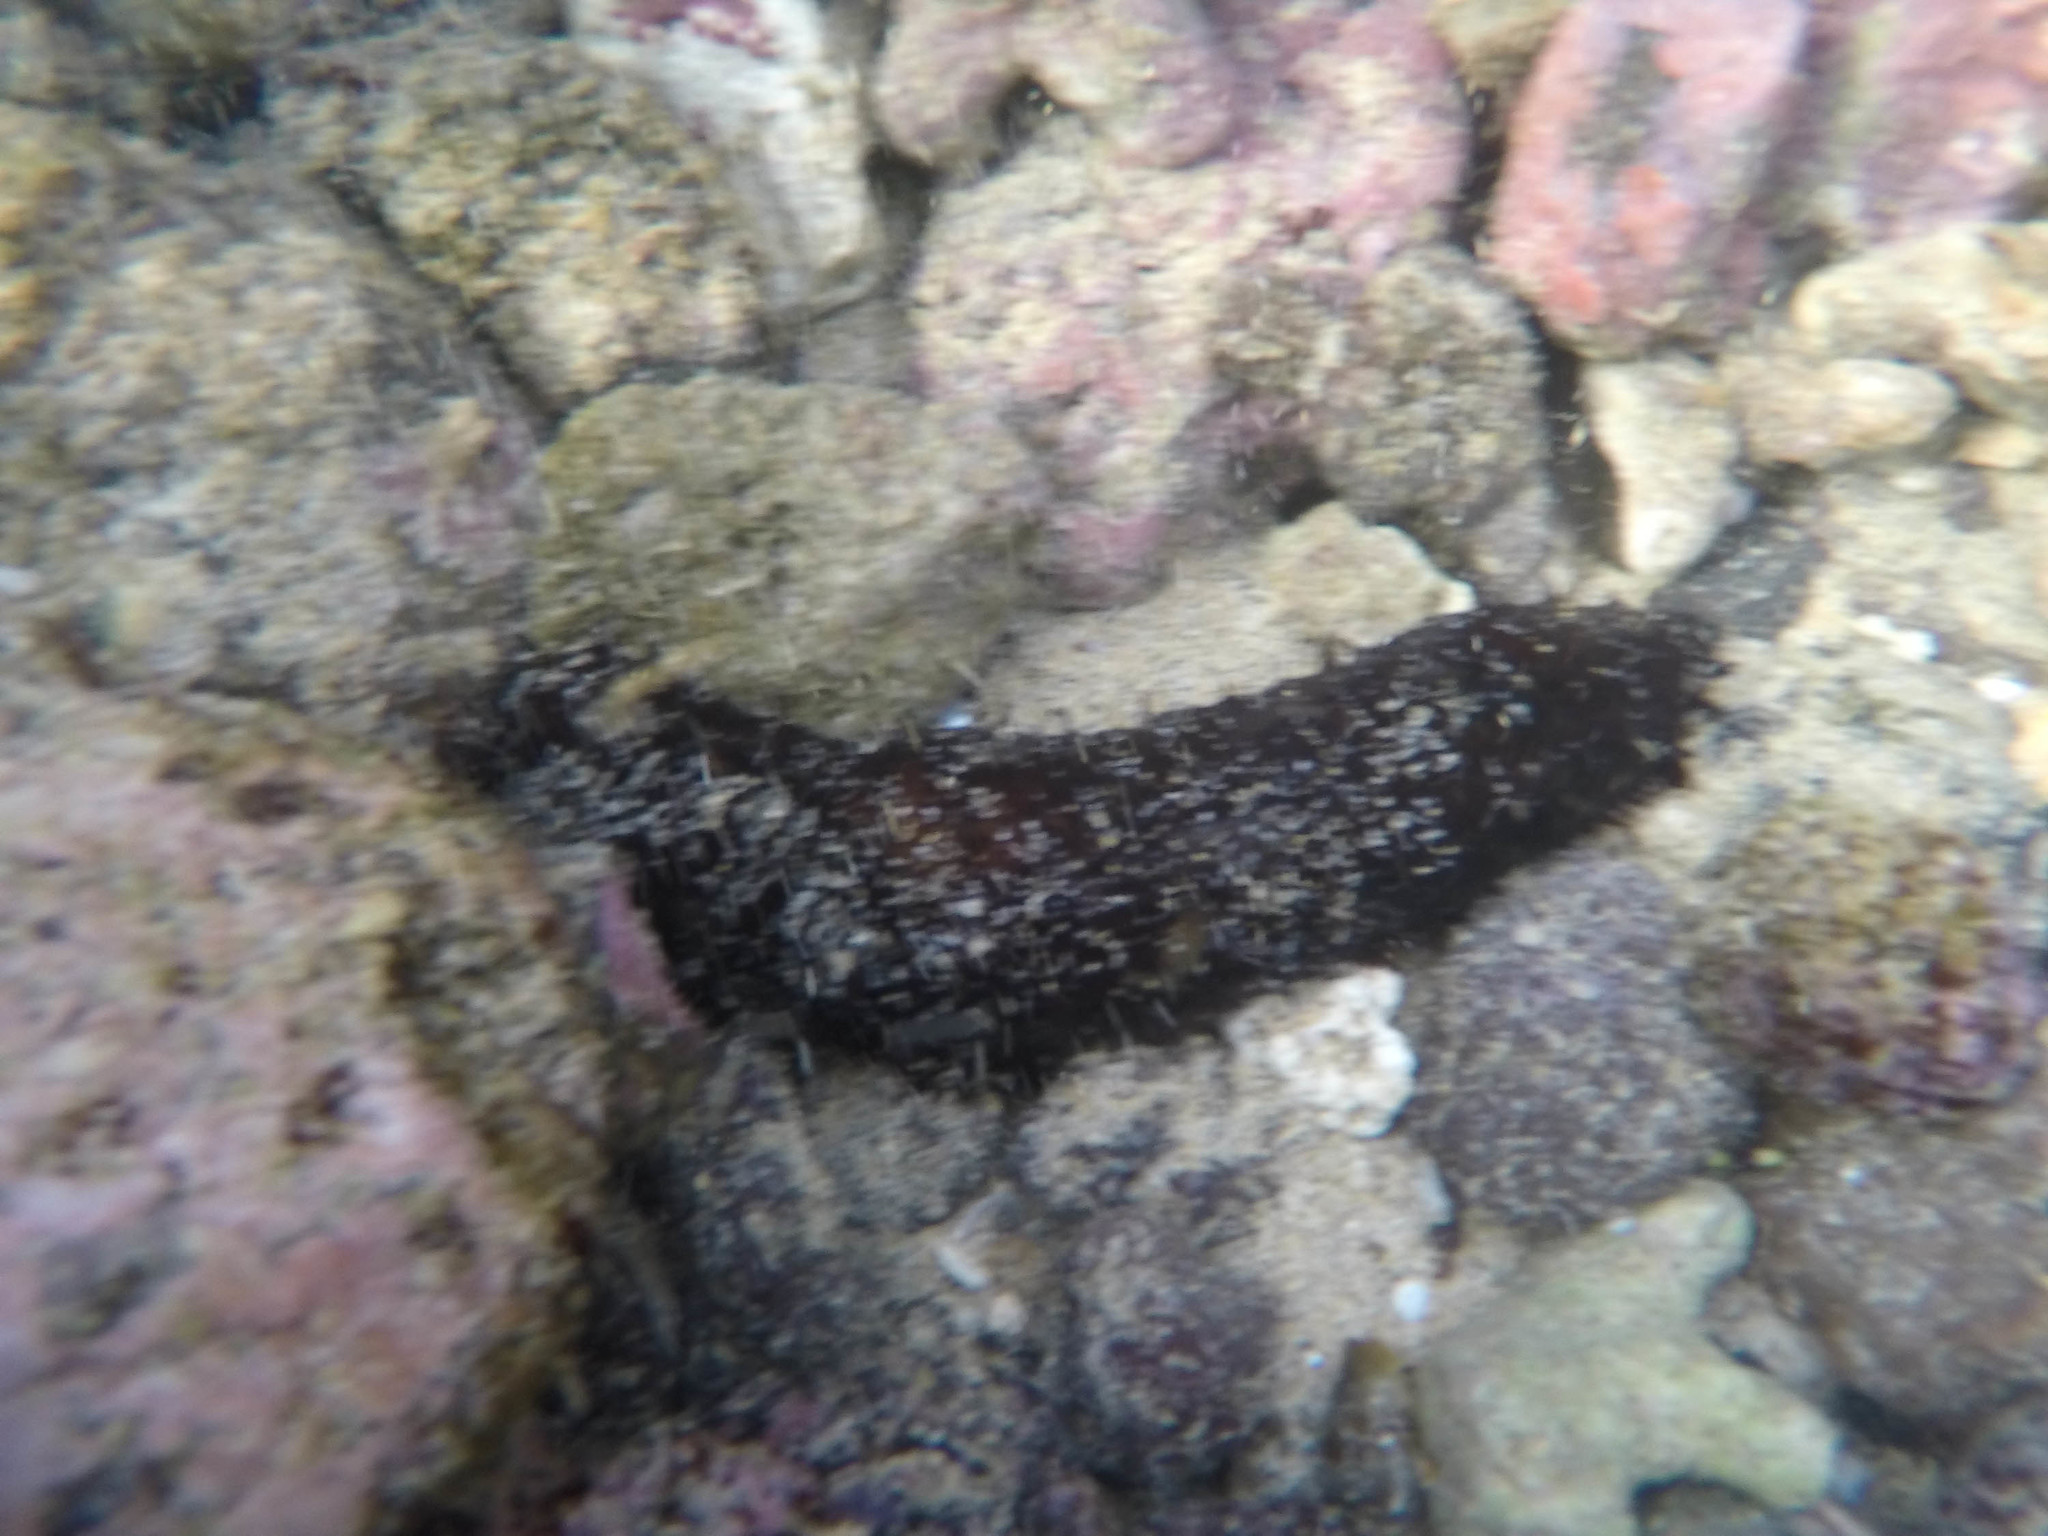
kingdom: Animalia
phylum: Echinodermata
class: Holothuroidea
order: Holothuriida
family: Holothuriidae
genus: Holothuria
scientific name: Holothuria atra
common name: Lollyfish
